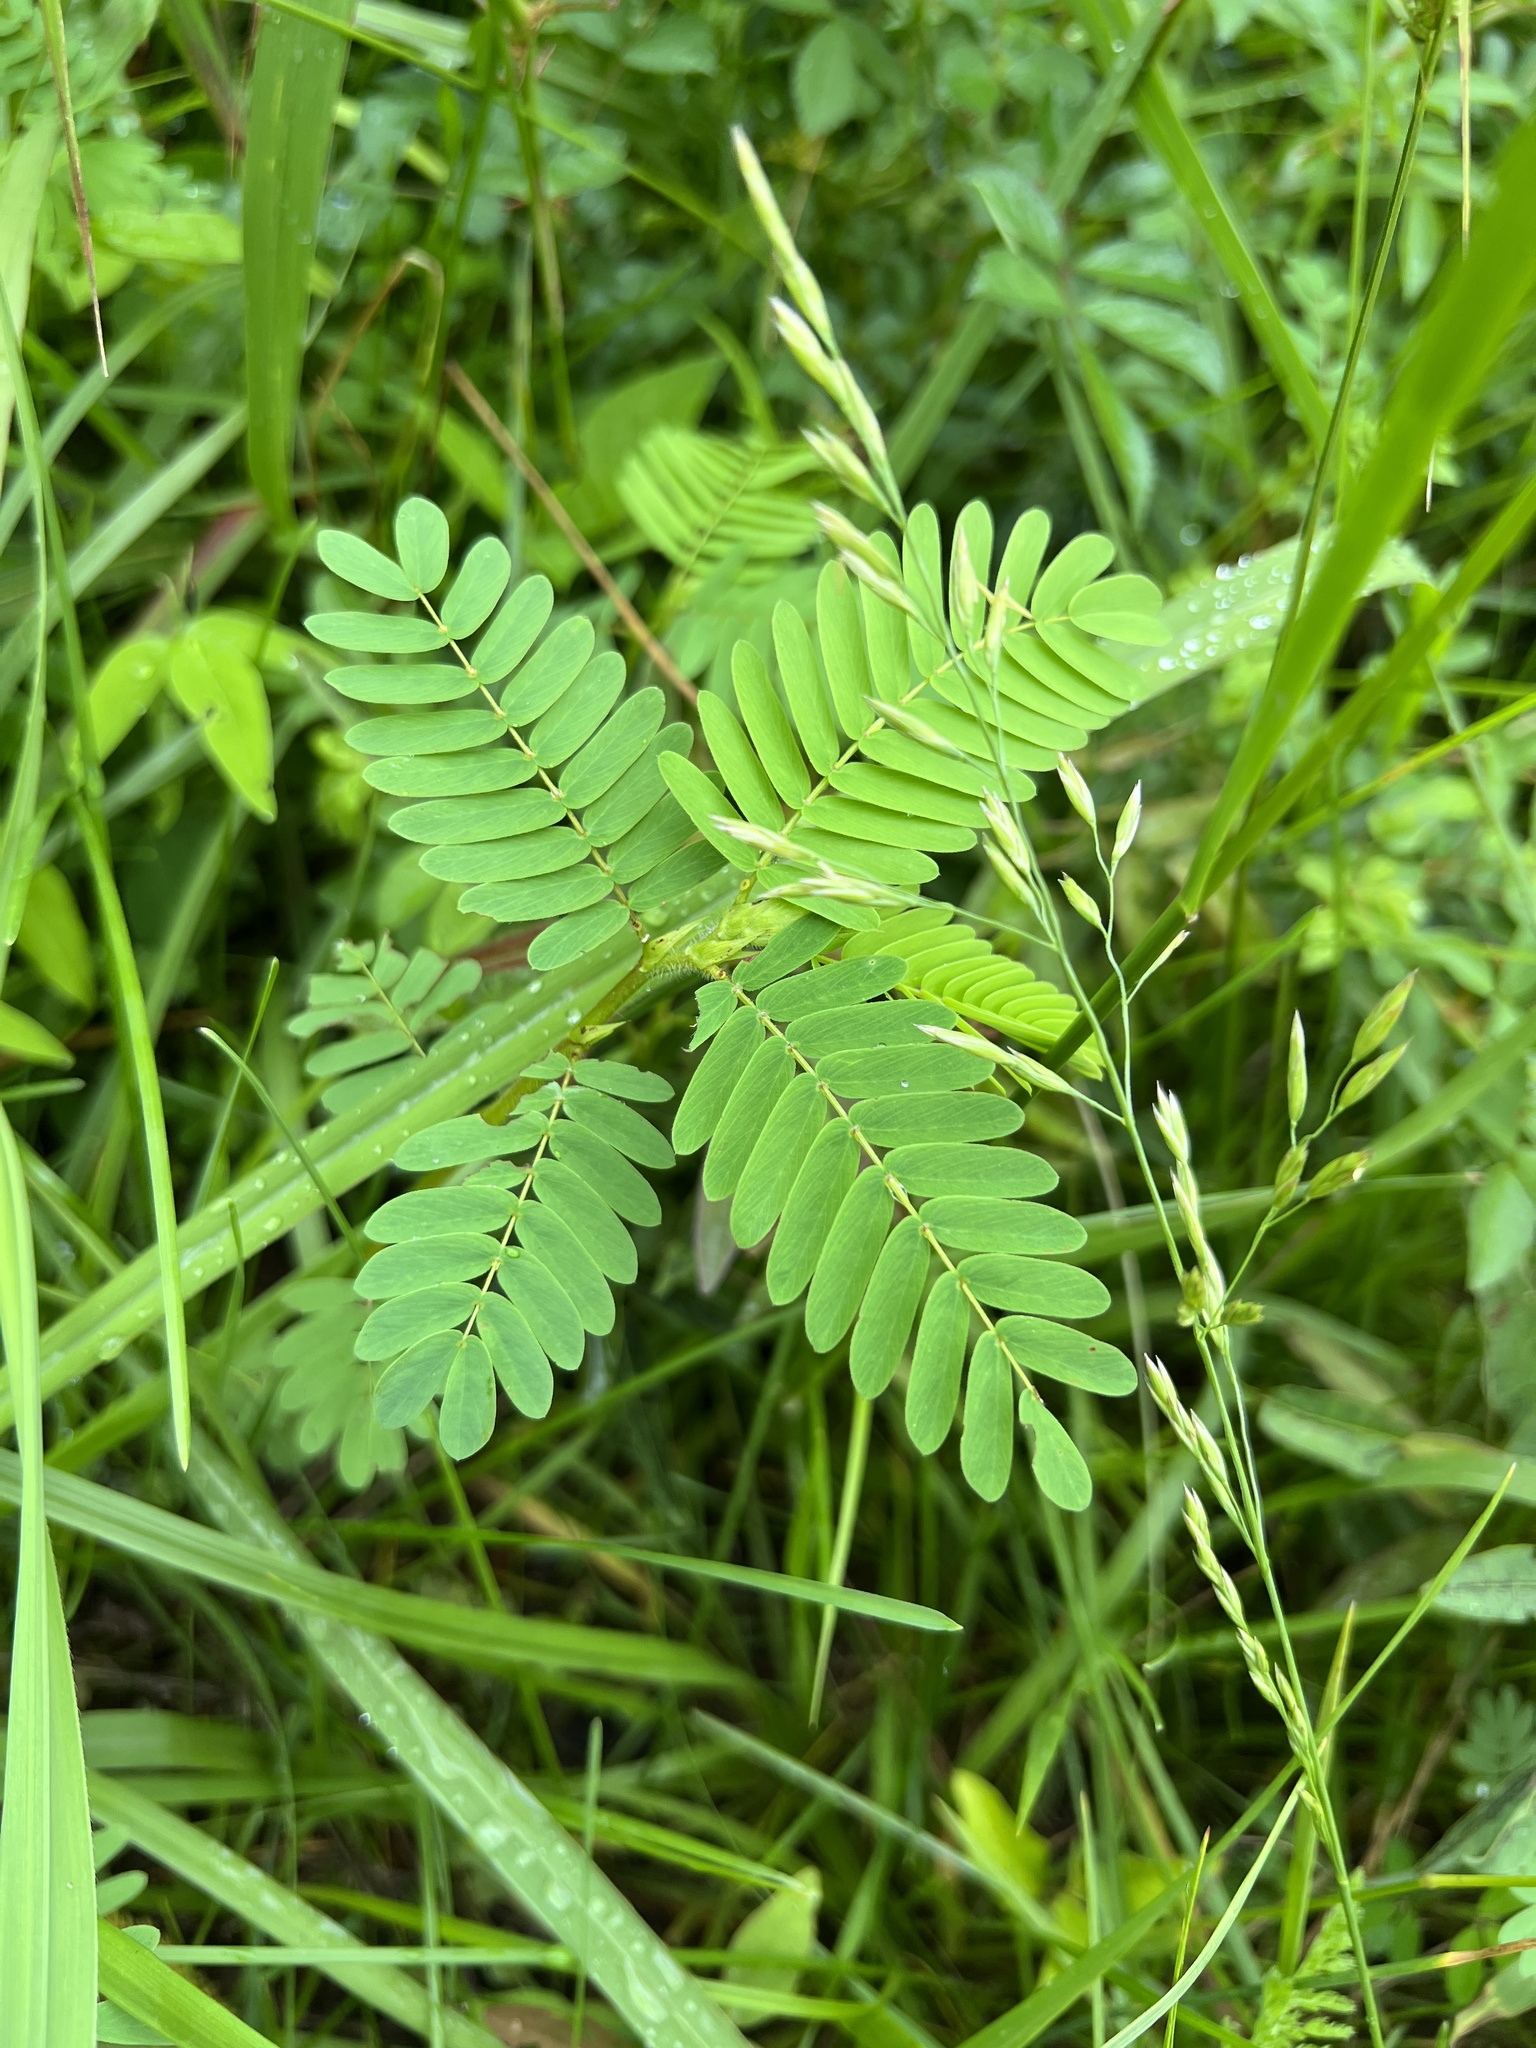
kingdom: Plantae
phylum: Tracheophyta
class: Magnoliopsida
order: Fabales
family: Fabaceae
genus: Chamaecrista
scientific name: Chamaecrista fasciculata
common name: Golden cassia
